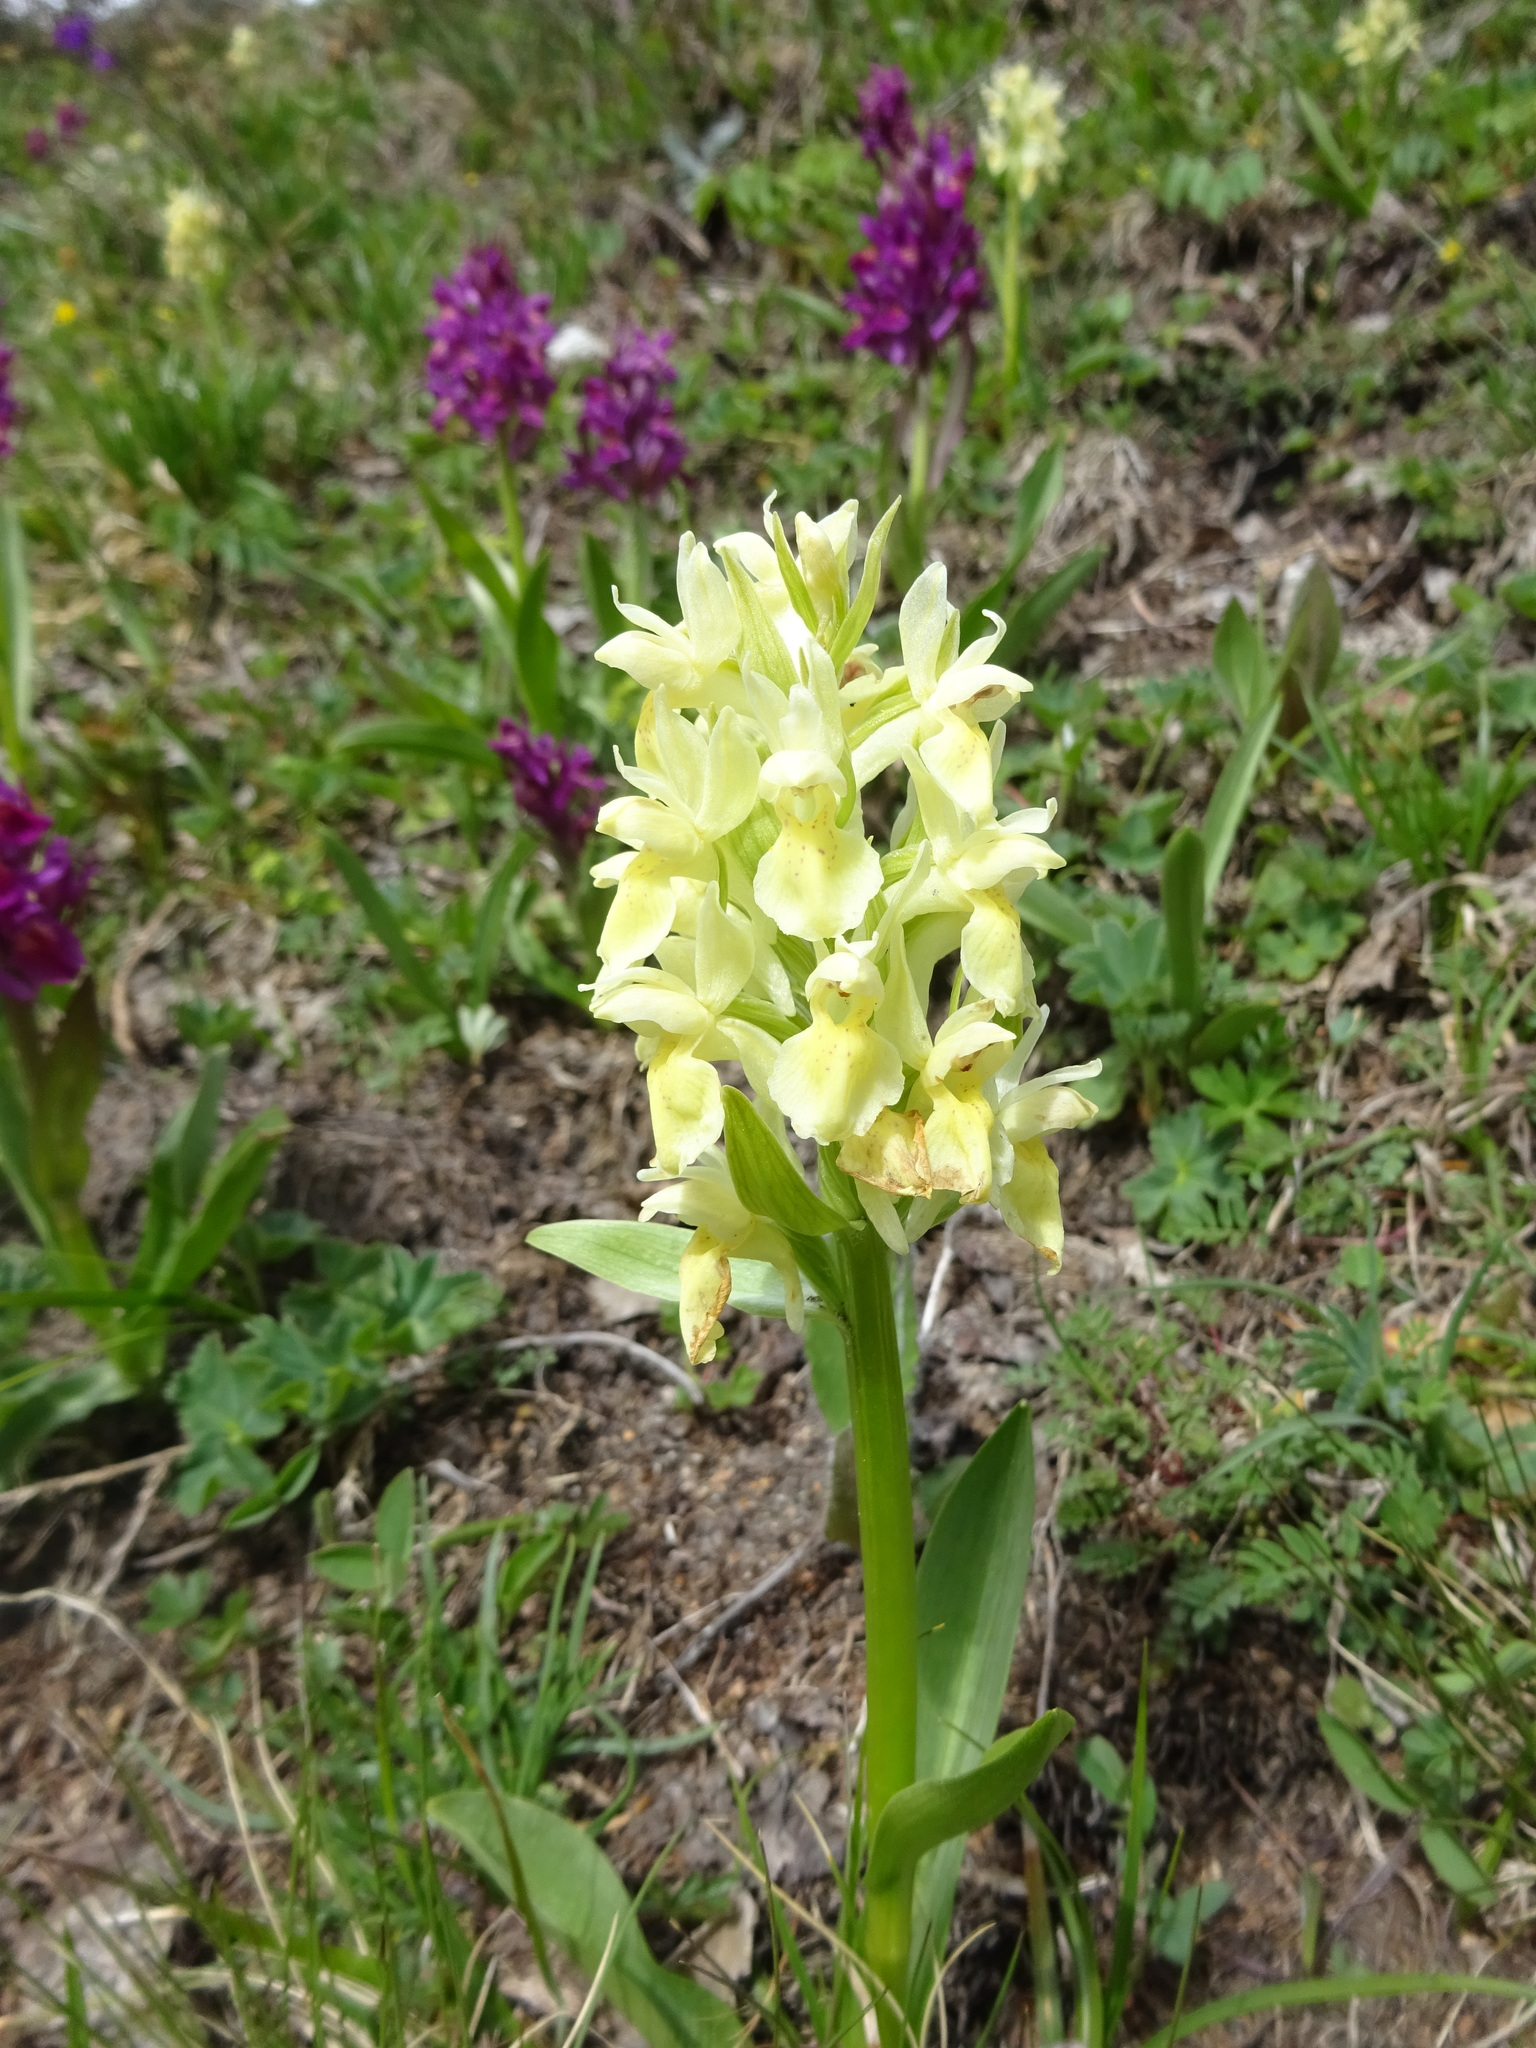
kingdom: Plantae
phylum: Tracheophyta
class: Liliopsida
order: Asparagales
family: Orchidaceae
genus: Dactylorhiza
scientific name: Dactylorhiza sambucina
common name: Elder-flowered orchid
